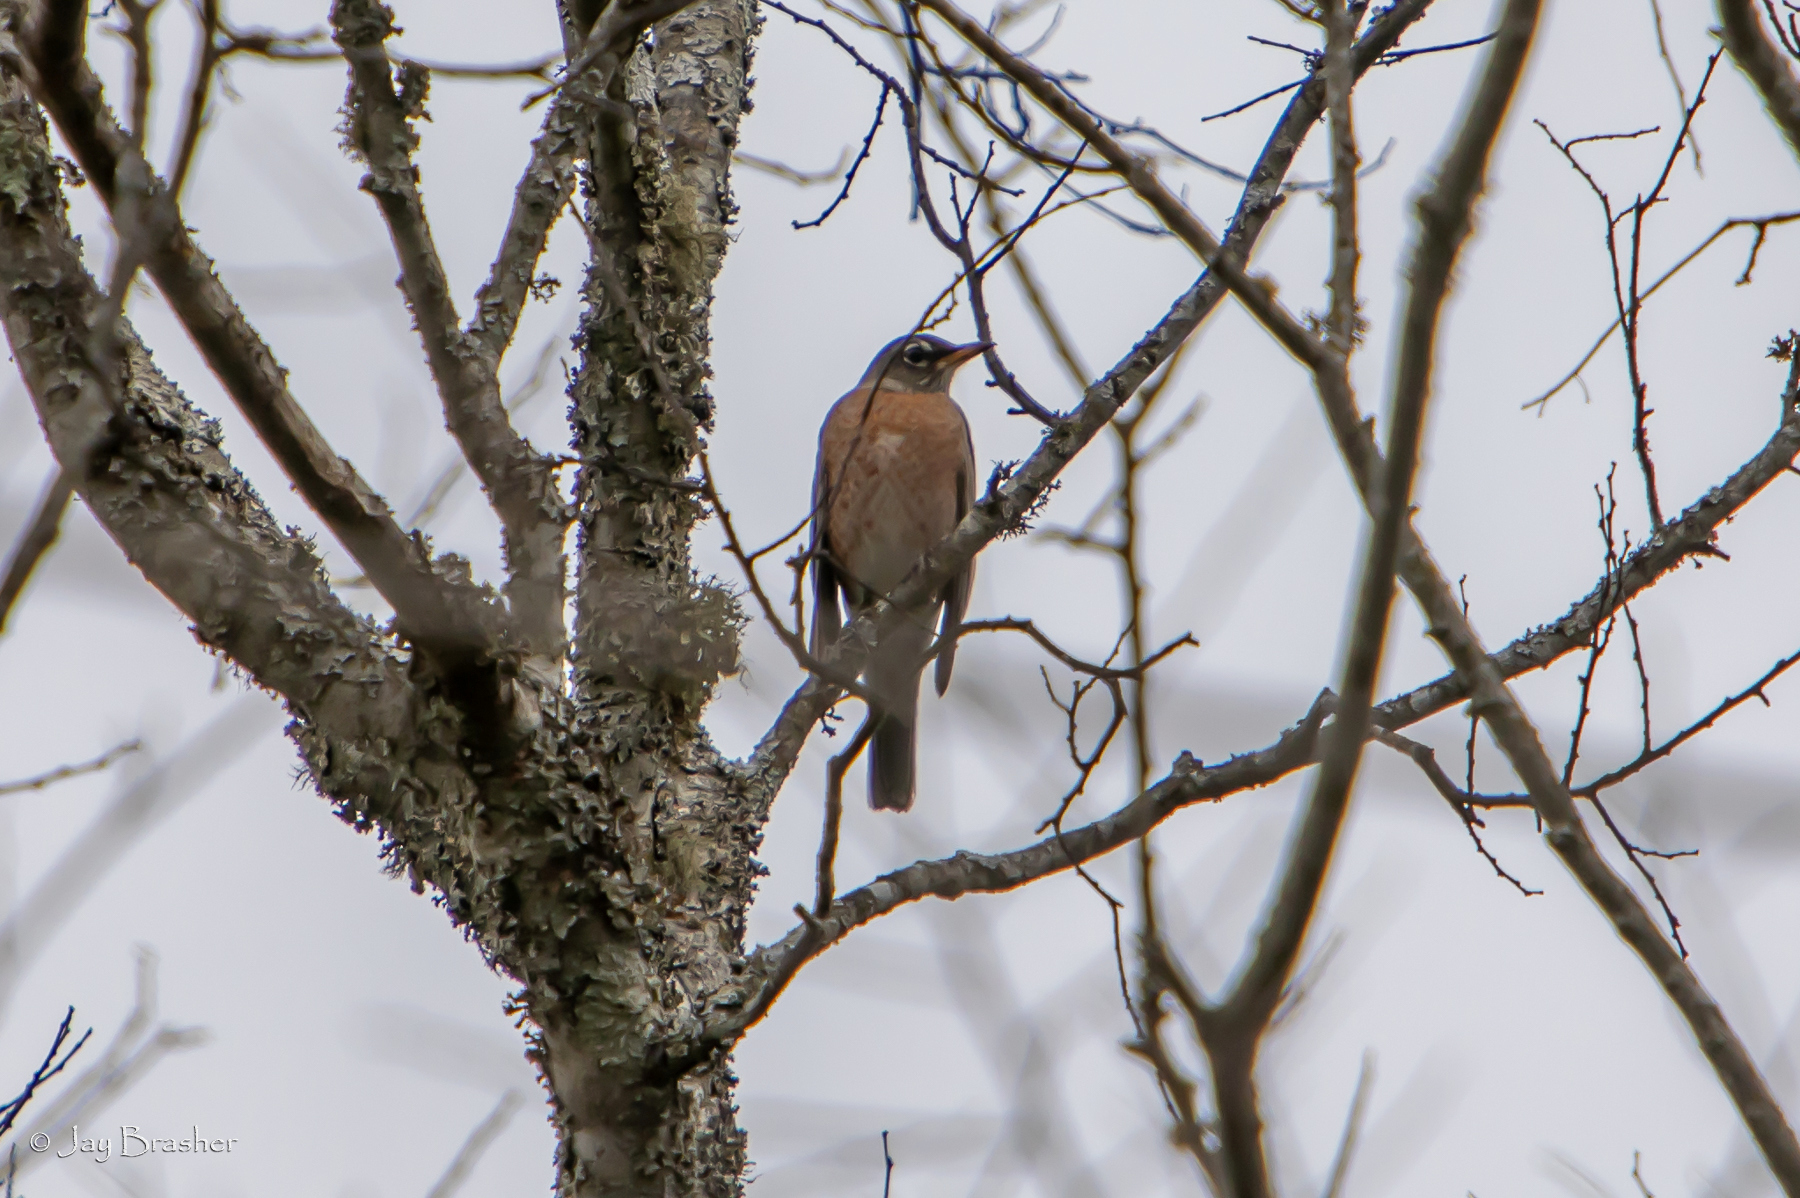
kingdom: Animalia
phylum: Chordata
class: Aves
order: Passeriformes
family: Turdidae
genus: Turdus
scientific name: Turdus migratorius
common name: American robin
